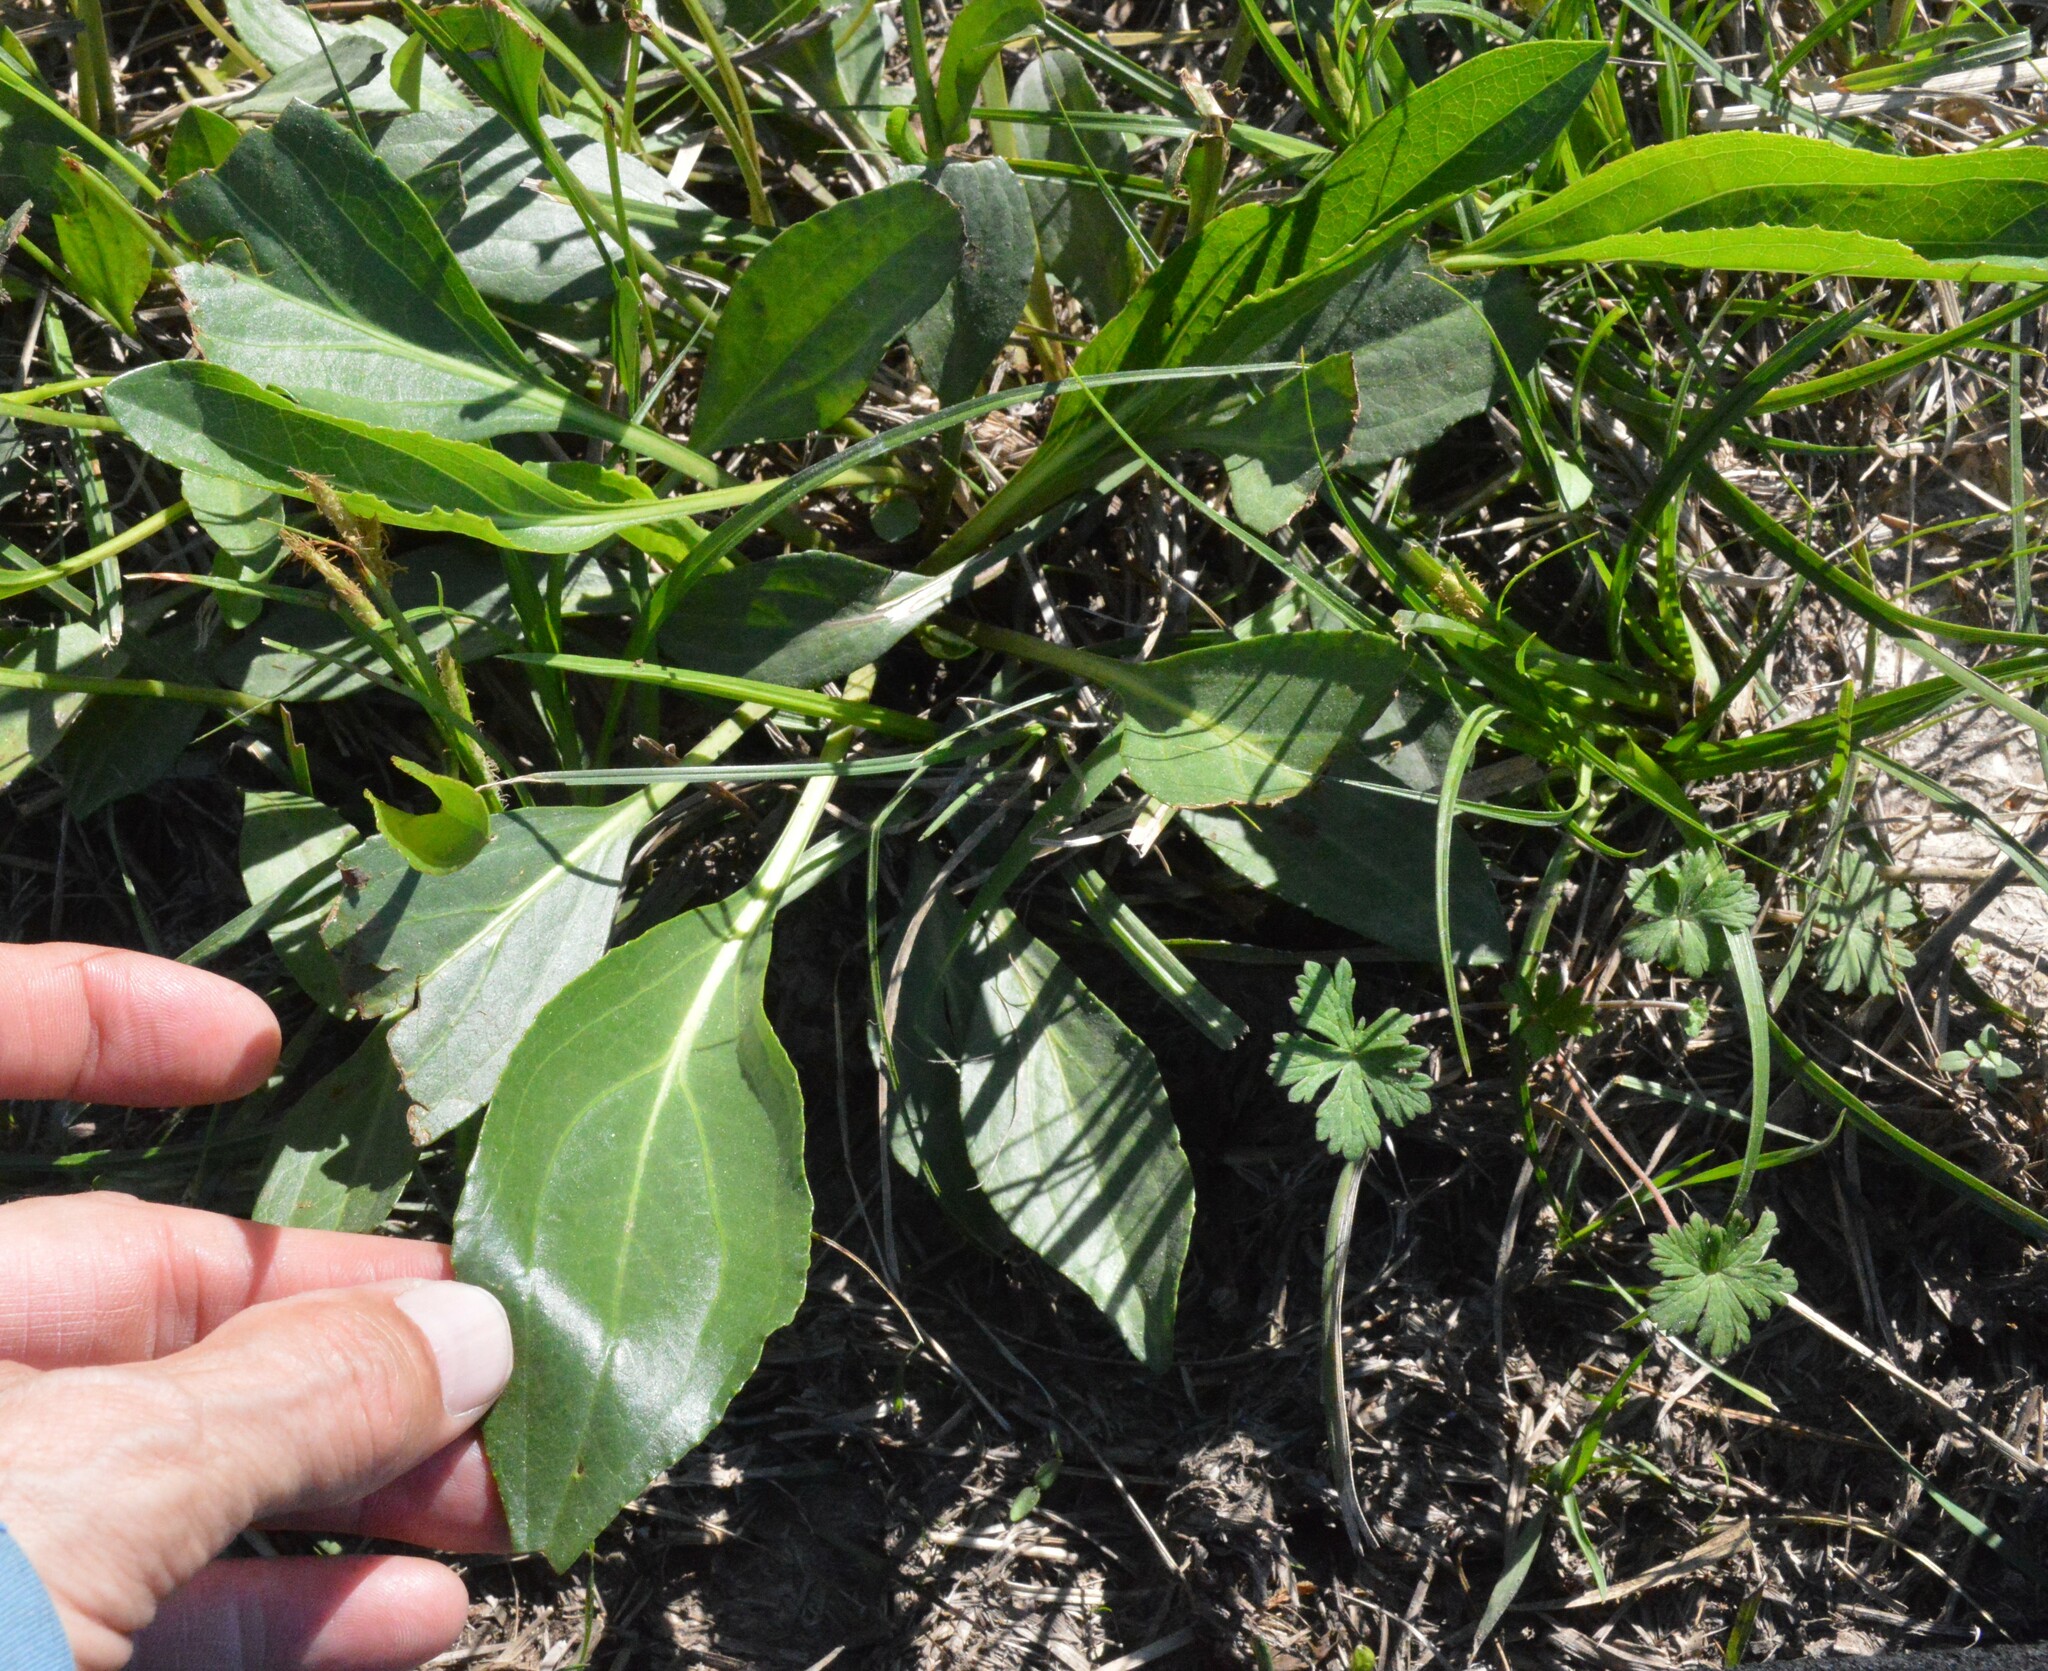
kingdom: Plantae
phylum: Tracheophyta
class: Magnoliopsida
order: Asterales
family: Asteraceae
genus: Rudbeckia
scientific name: Rudbeckia texana
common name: Texas coneflower
